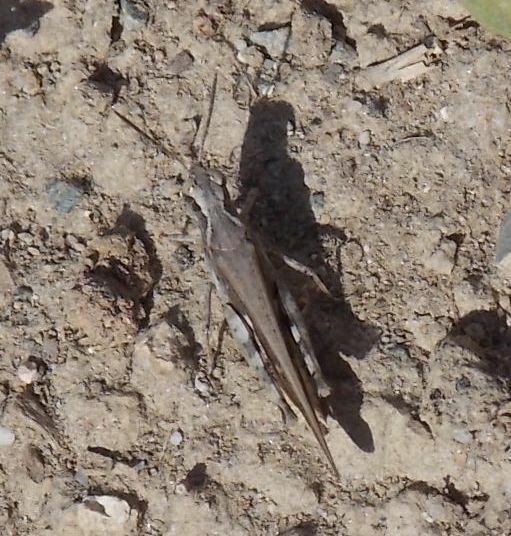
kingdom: Animalia
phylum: Arthropoda
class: Insecta
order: Orthoptera
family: Acrididae
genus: Aiolopus
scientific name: Aiolopus puissanti
